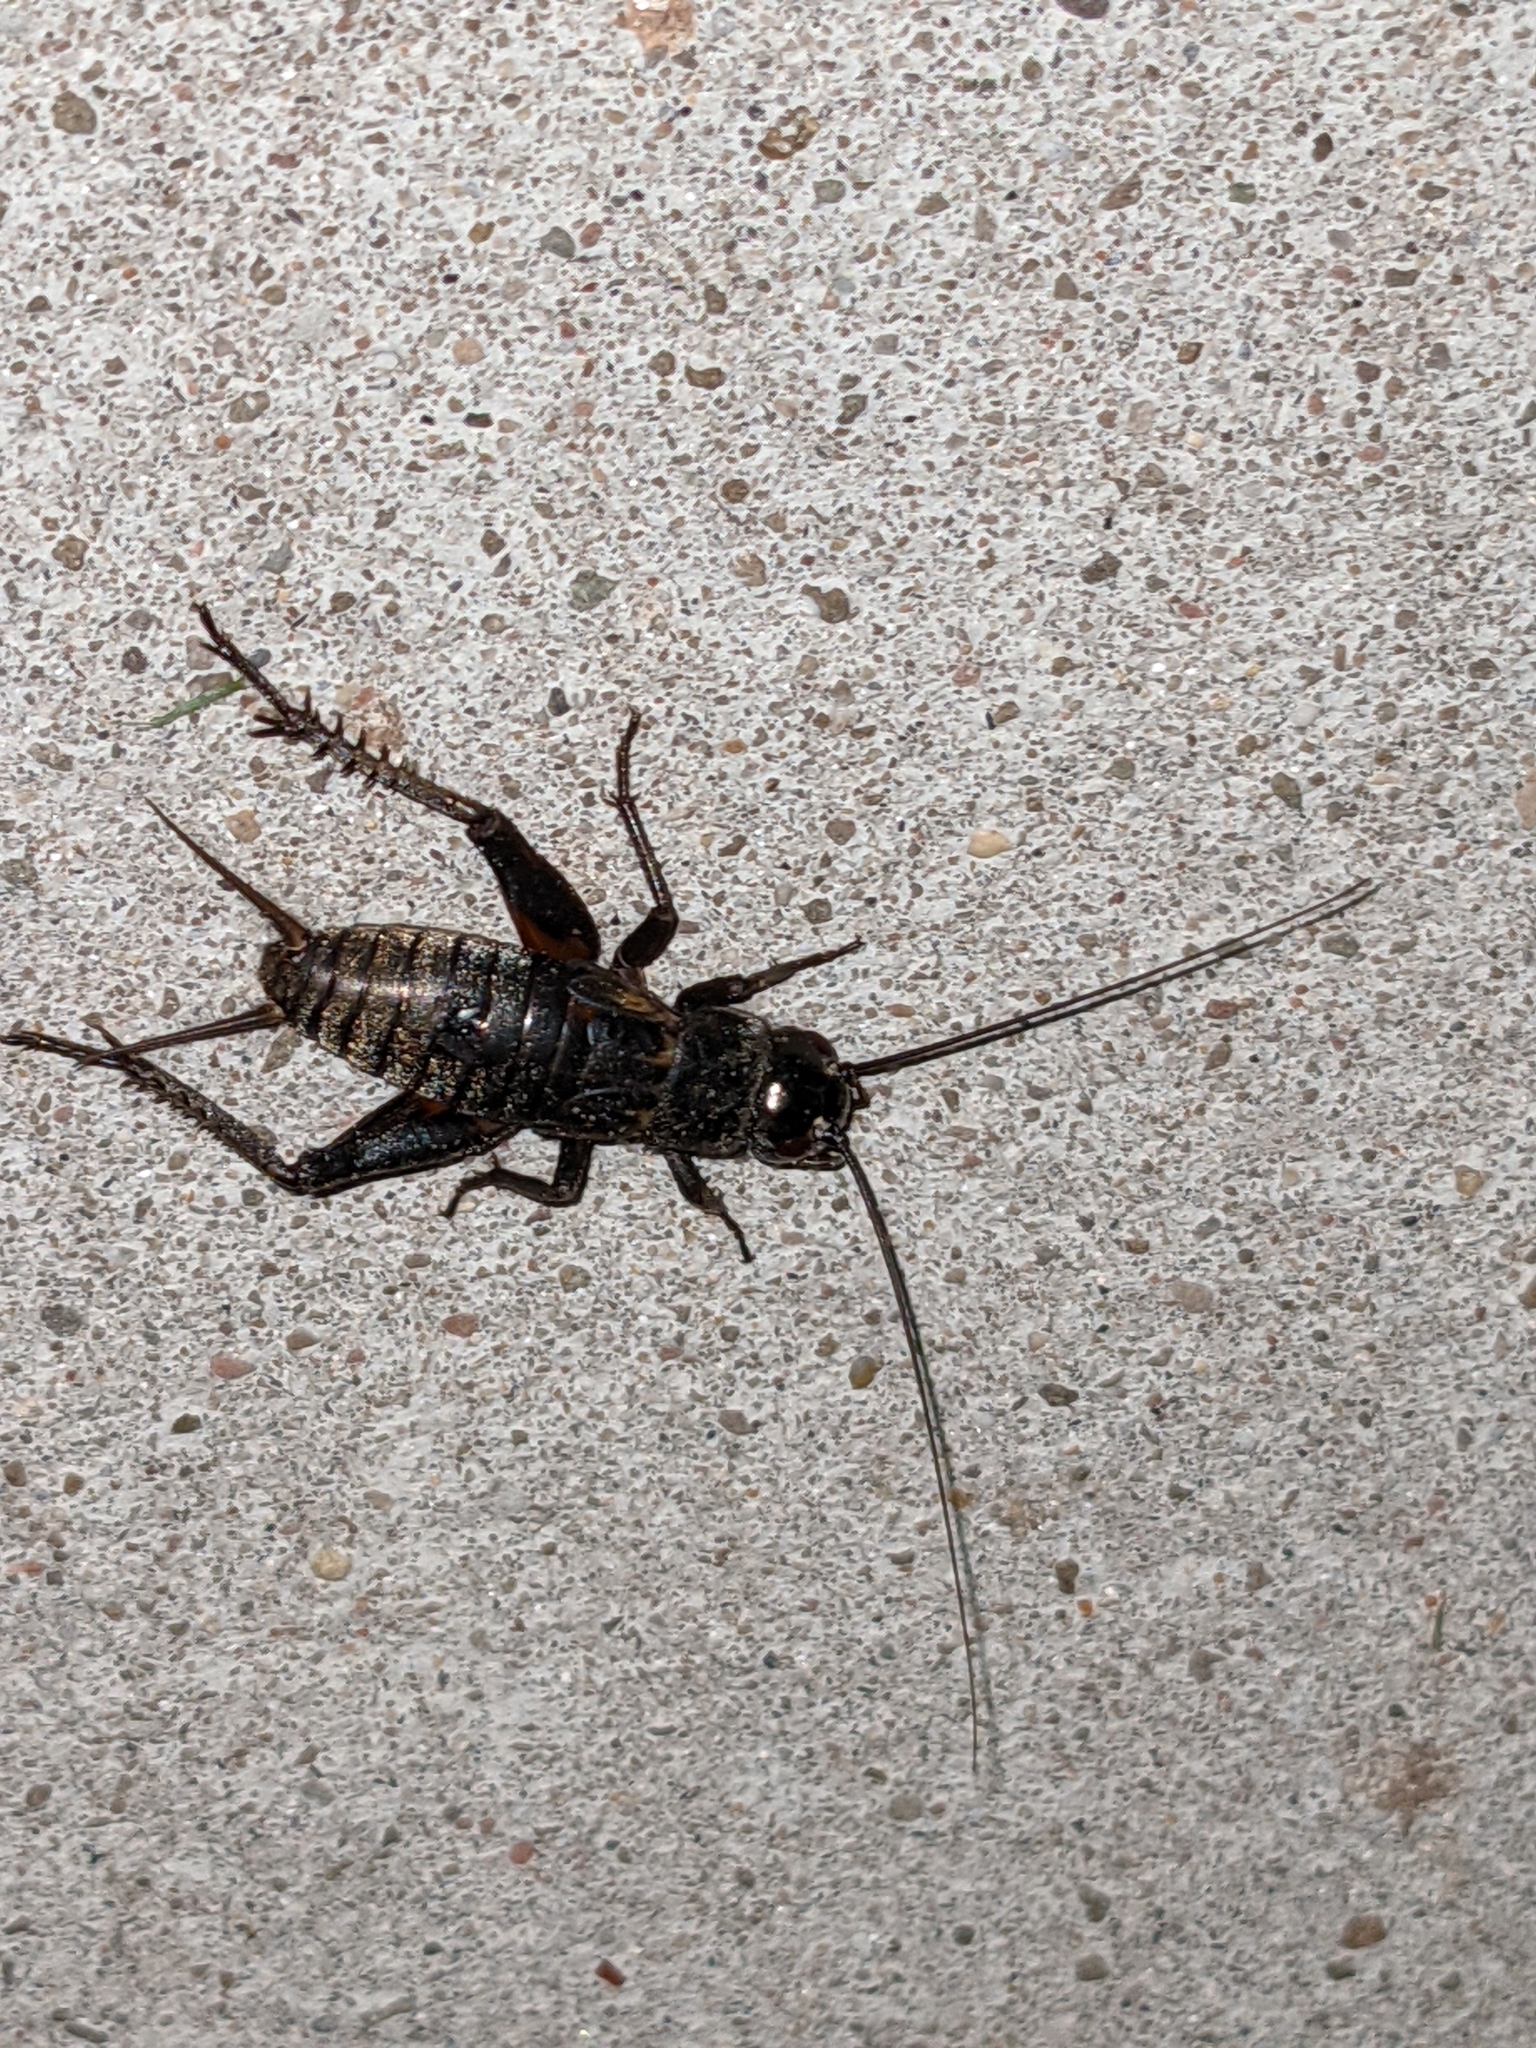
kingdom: Animalia
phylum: Arthropoda
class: Insecta
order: Orthoptera
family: Gryllidae
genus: Gryllus
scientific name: Gryllus pennsylvanicus
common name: Fall field cricket
